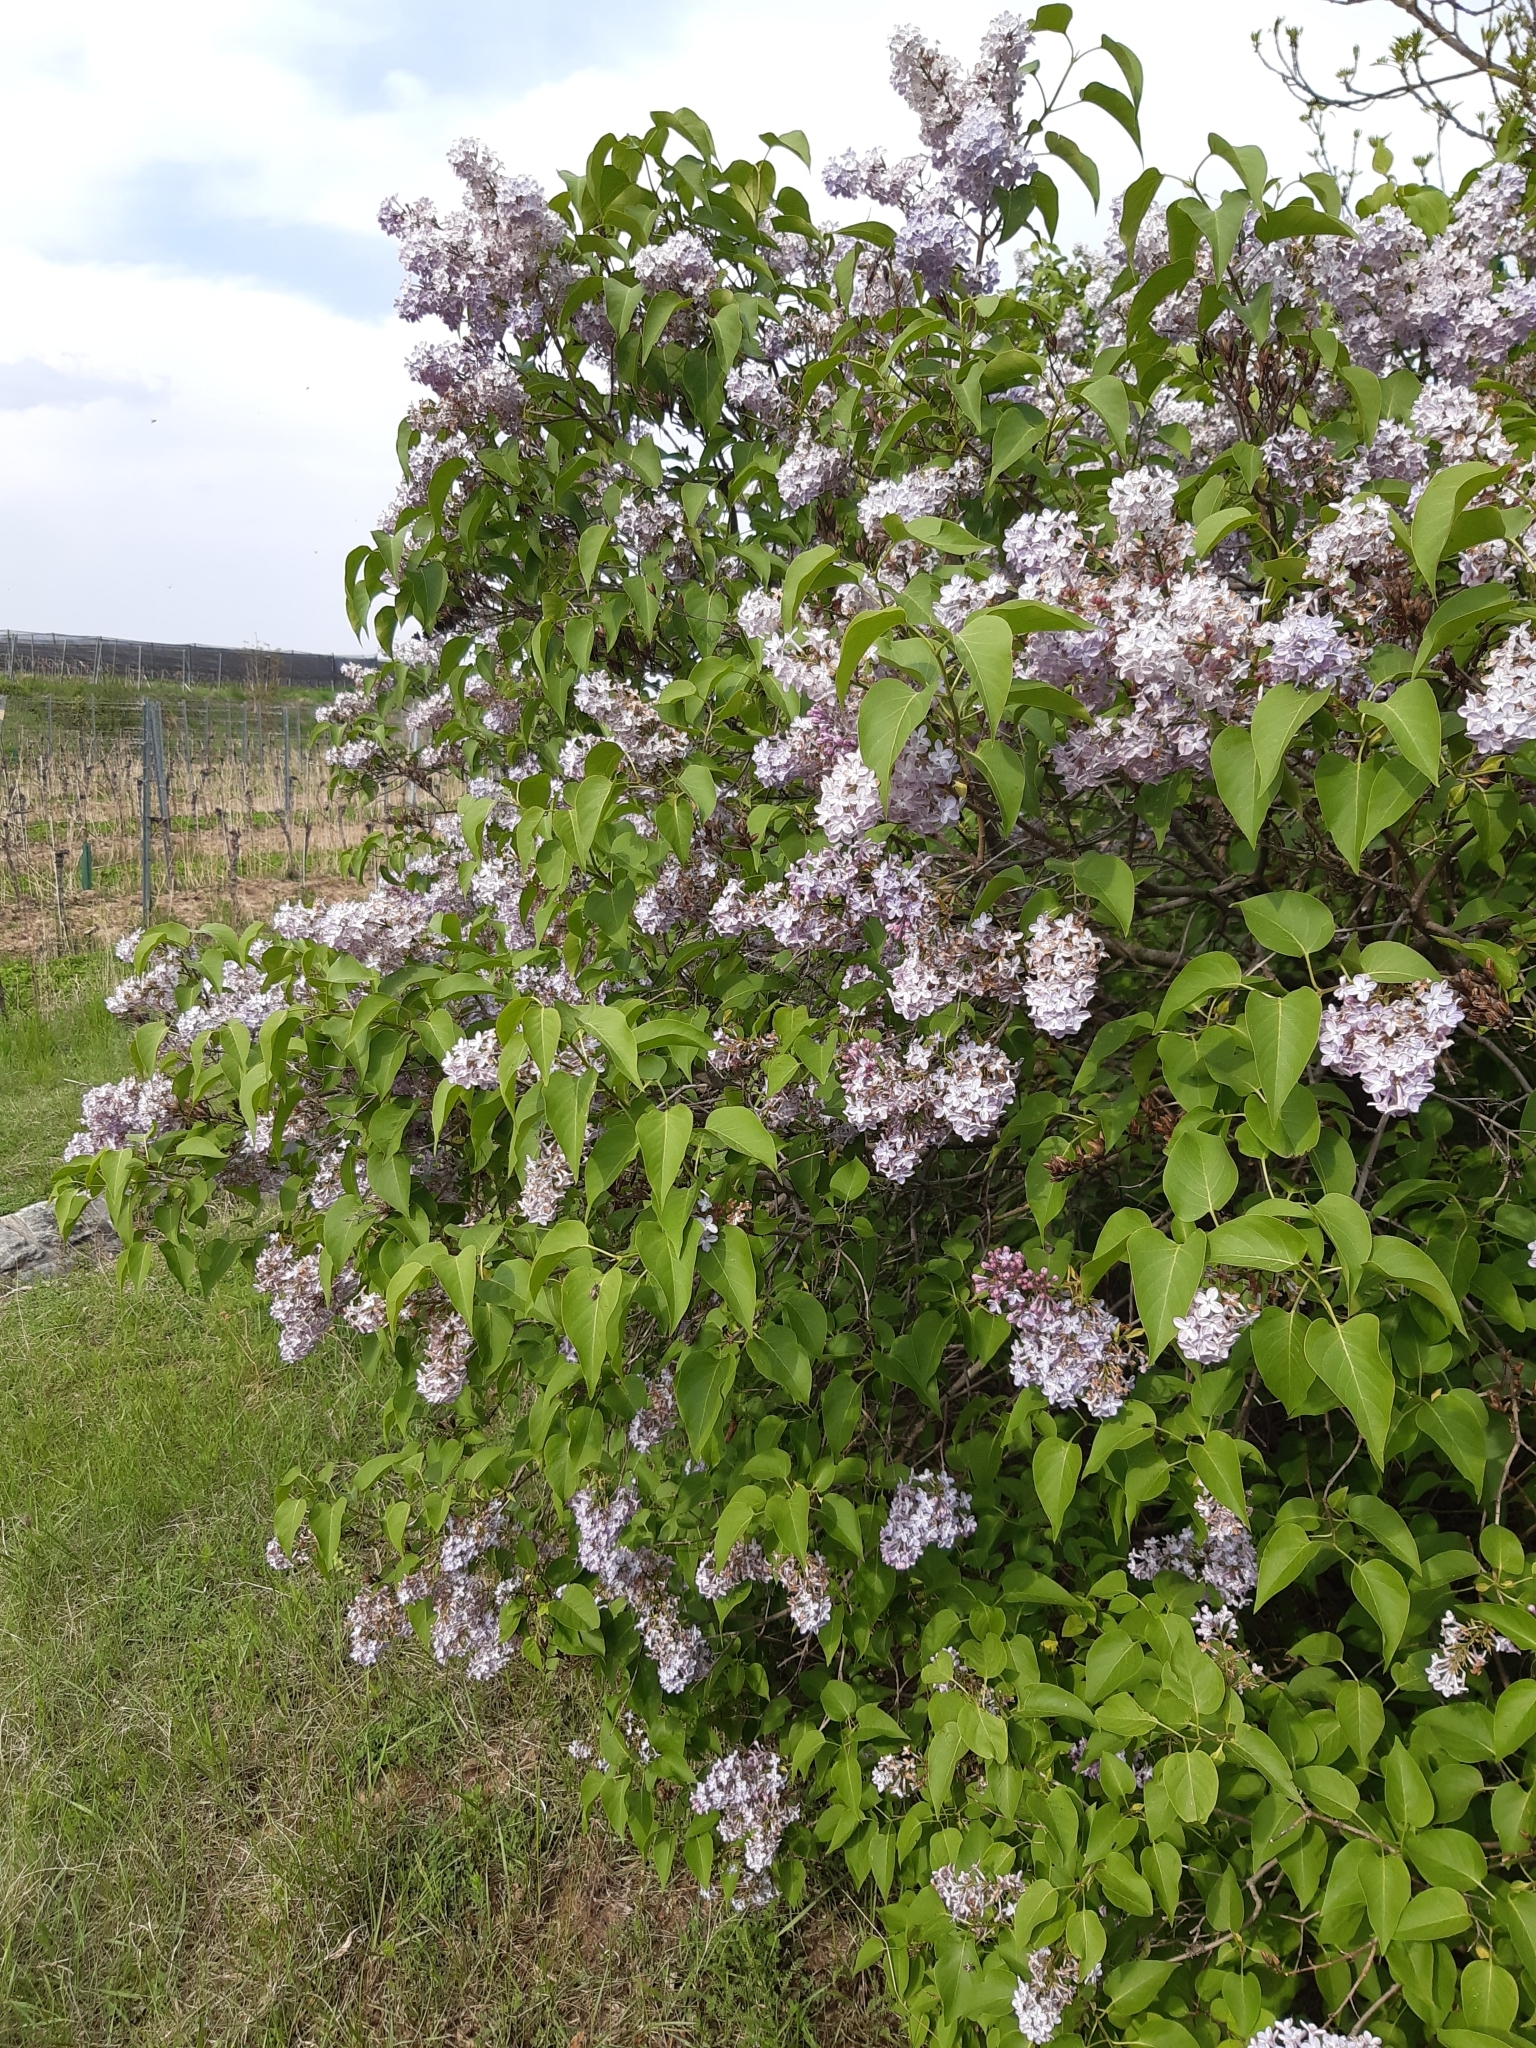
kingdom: Plantae
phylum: Tracheophyta
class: Magnoliopsida
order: Lamiales
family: Oleaceae
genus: Syringa
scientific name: Syringa vulgaris
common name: Common lilac
